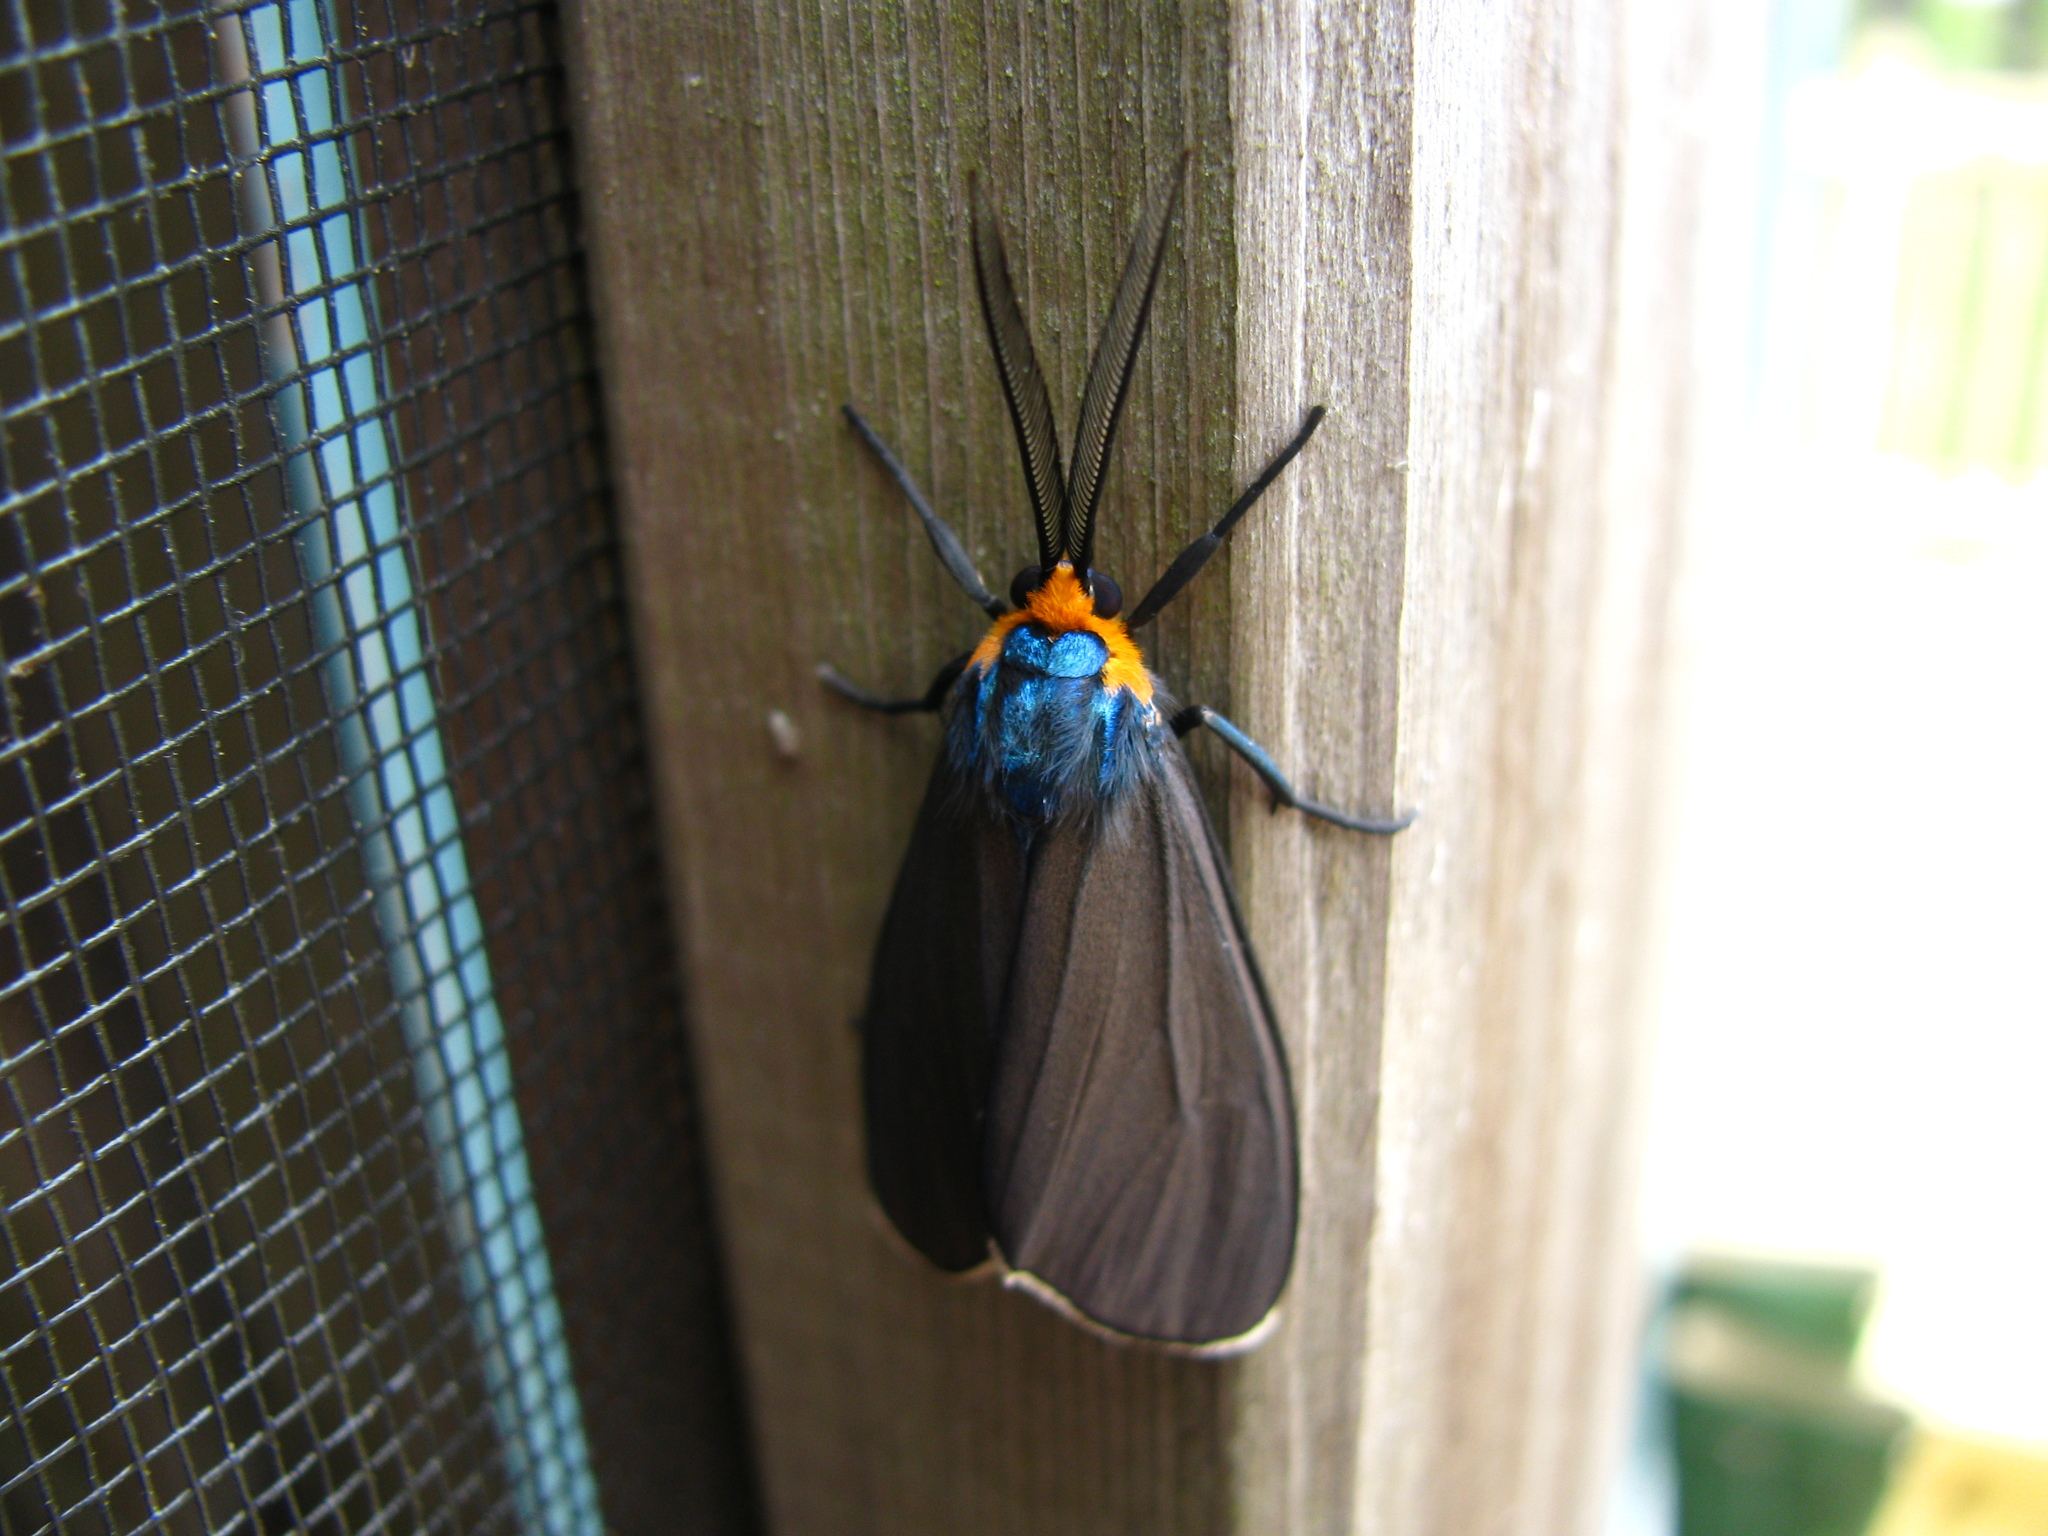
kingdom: Animalia
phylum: Arthropoda
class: Insecta
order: Lepidoptera
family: Erebidae
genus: Ctenucha
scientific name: Ctenucha virginica
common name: Virginia ctenucha moth
